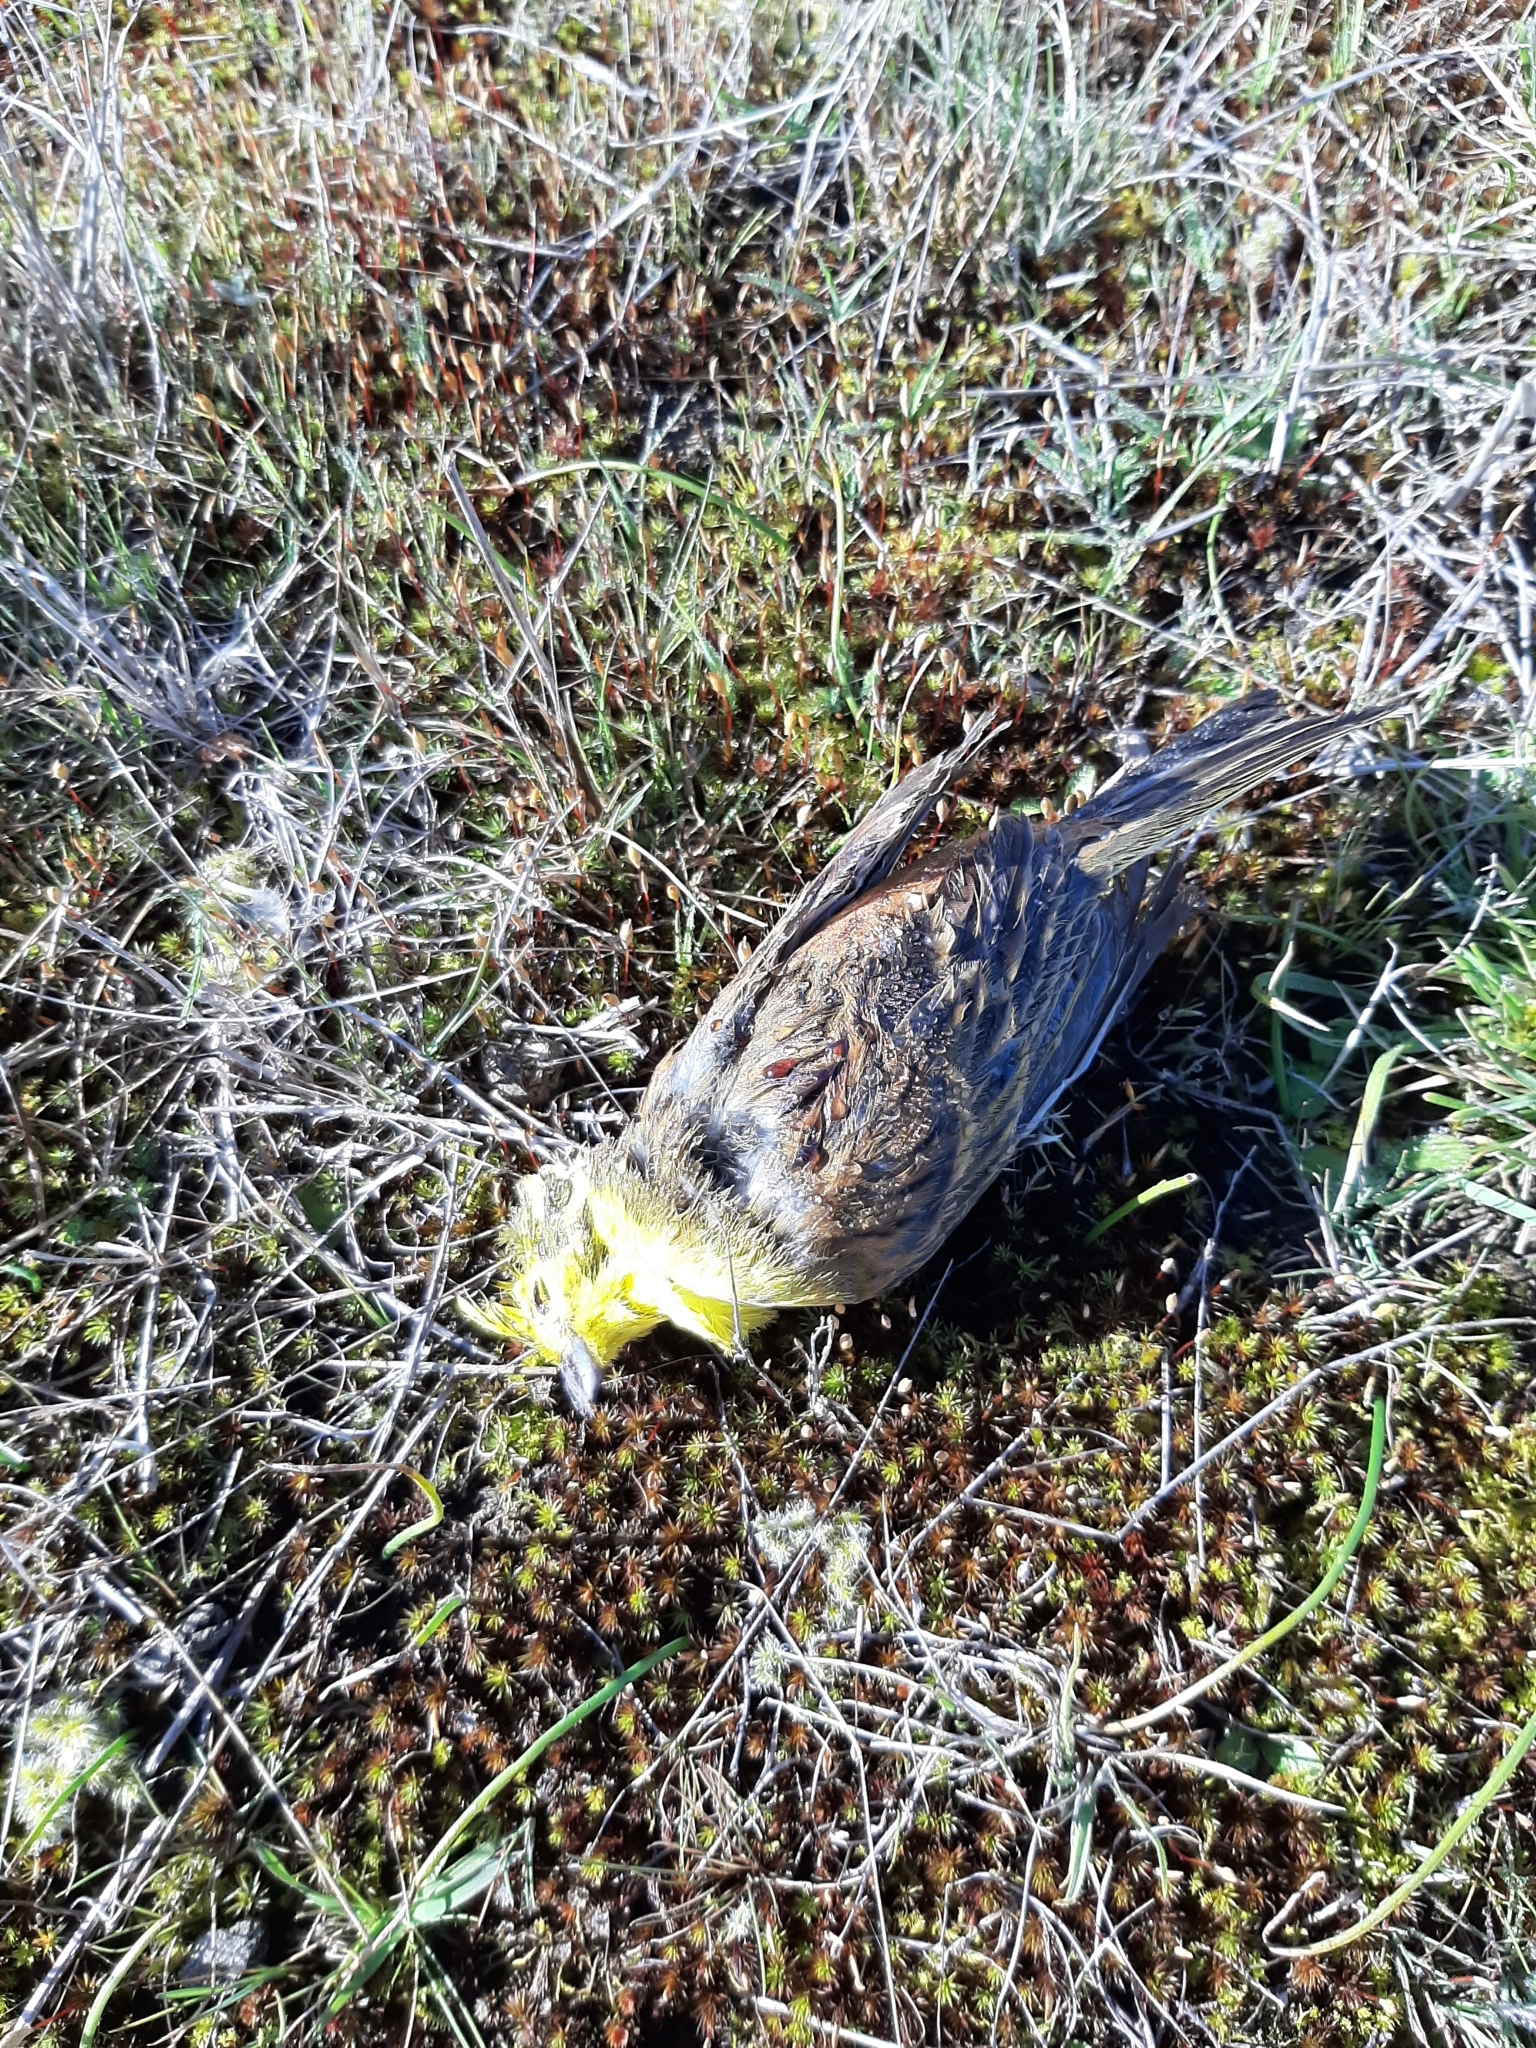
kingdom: Animalia
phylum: Chordata
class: Aves
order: Passeriformes
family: Emberizidae
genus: Emberiza
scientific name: Emberiza citrinella
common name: Yellowhammer
